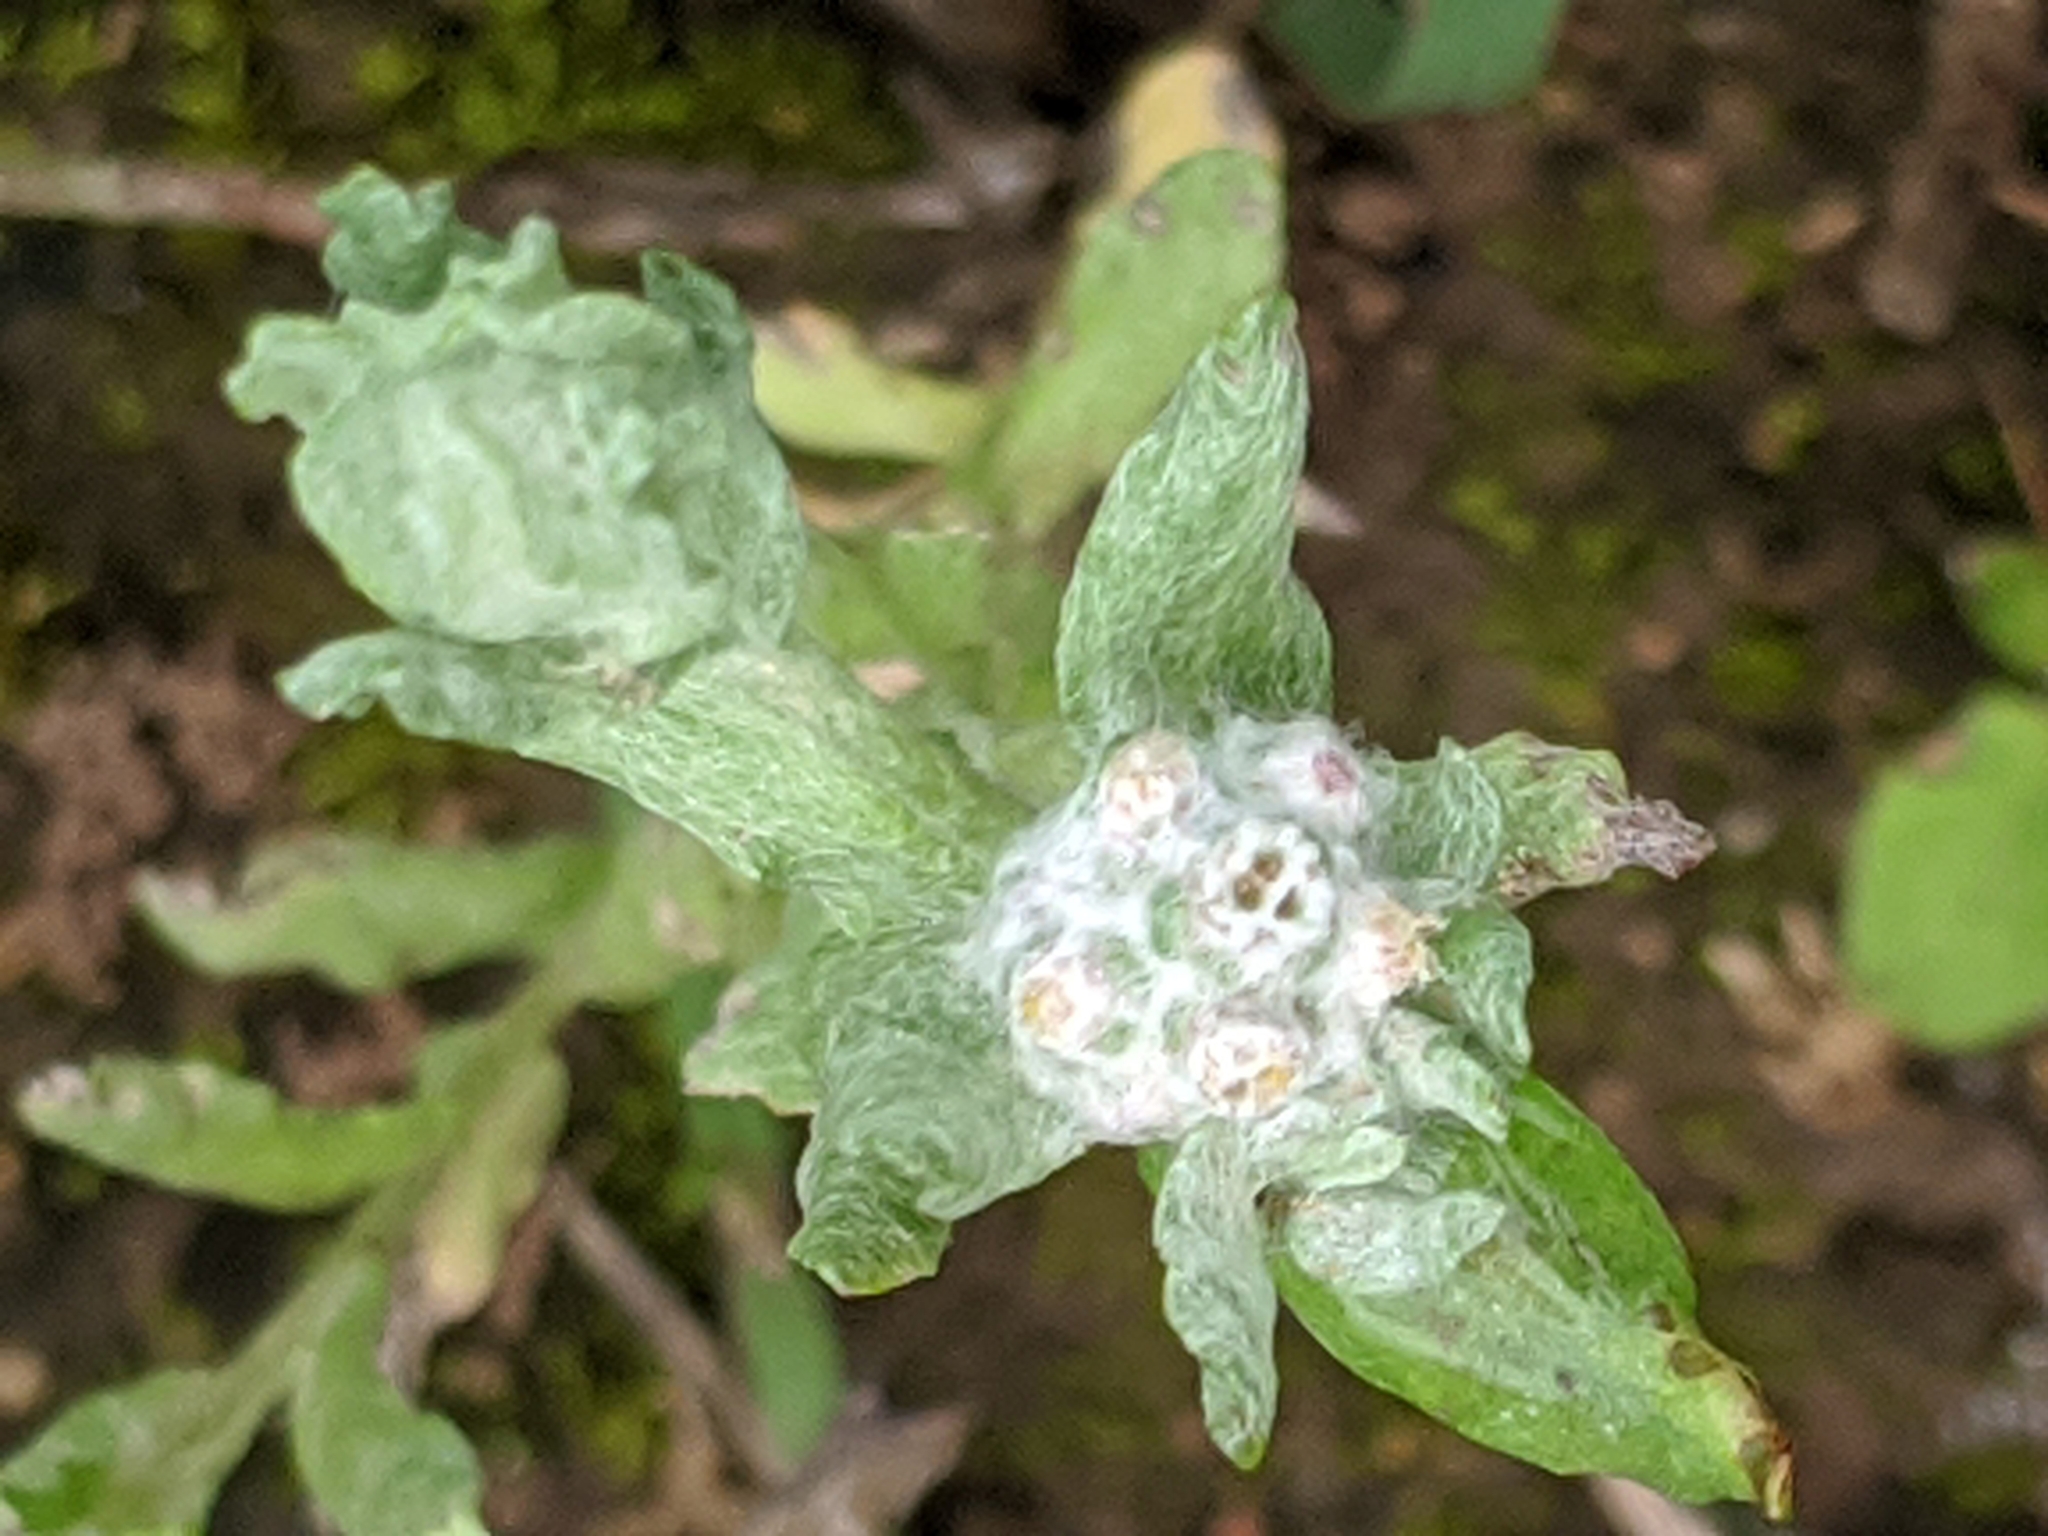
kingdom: Plantae
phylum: Tracheophyta
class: Magnoliopsida
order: Asterales
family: Asteraceae
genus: Diaperia
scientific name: Diaperia verna
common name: Many-stem rabbit-tobacco
